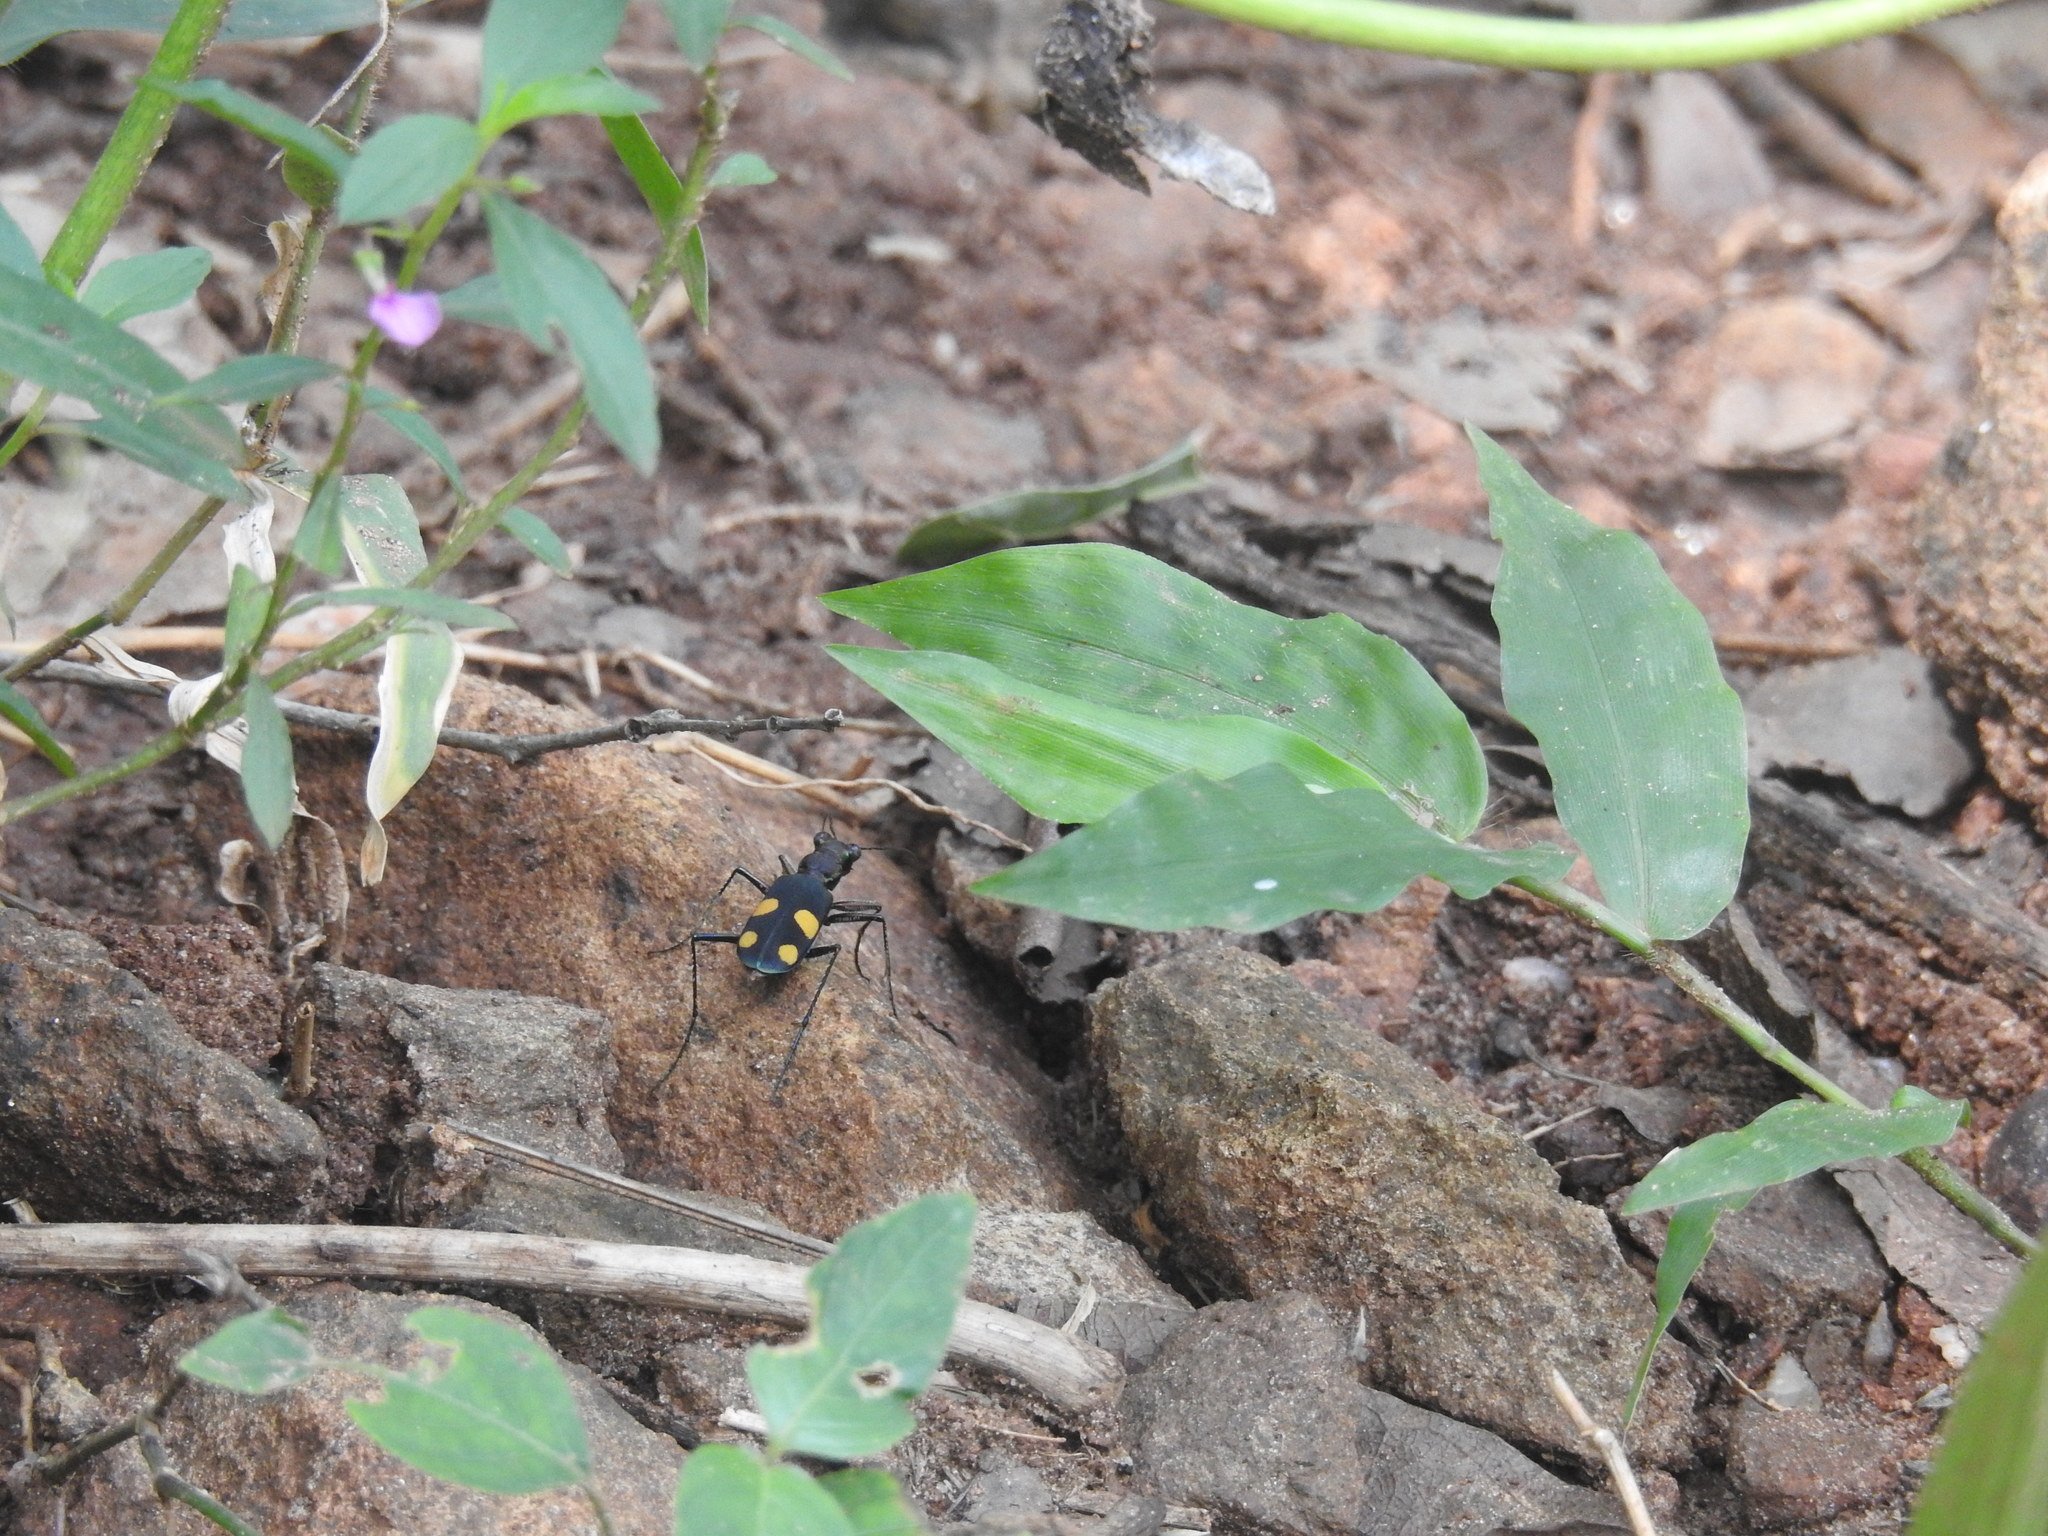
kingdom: Animalia
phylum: Arthropoda
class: Insecta
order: Coleoptera
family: Carabidae
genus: Cicindela
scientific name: Cicindela bicolor
